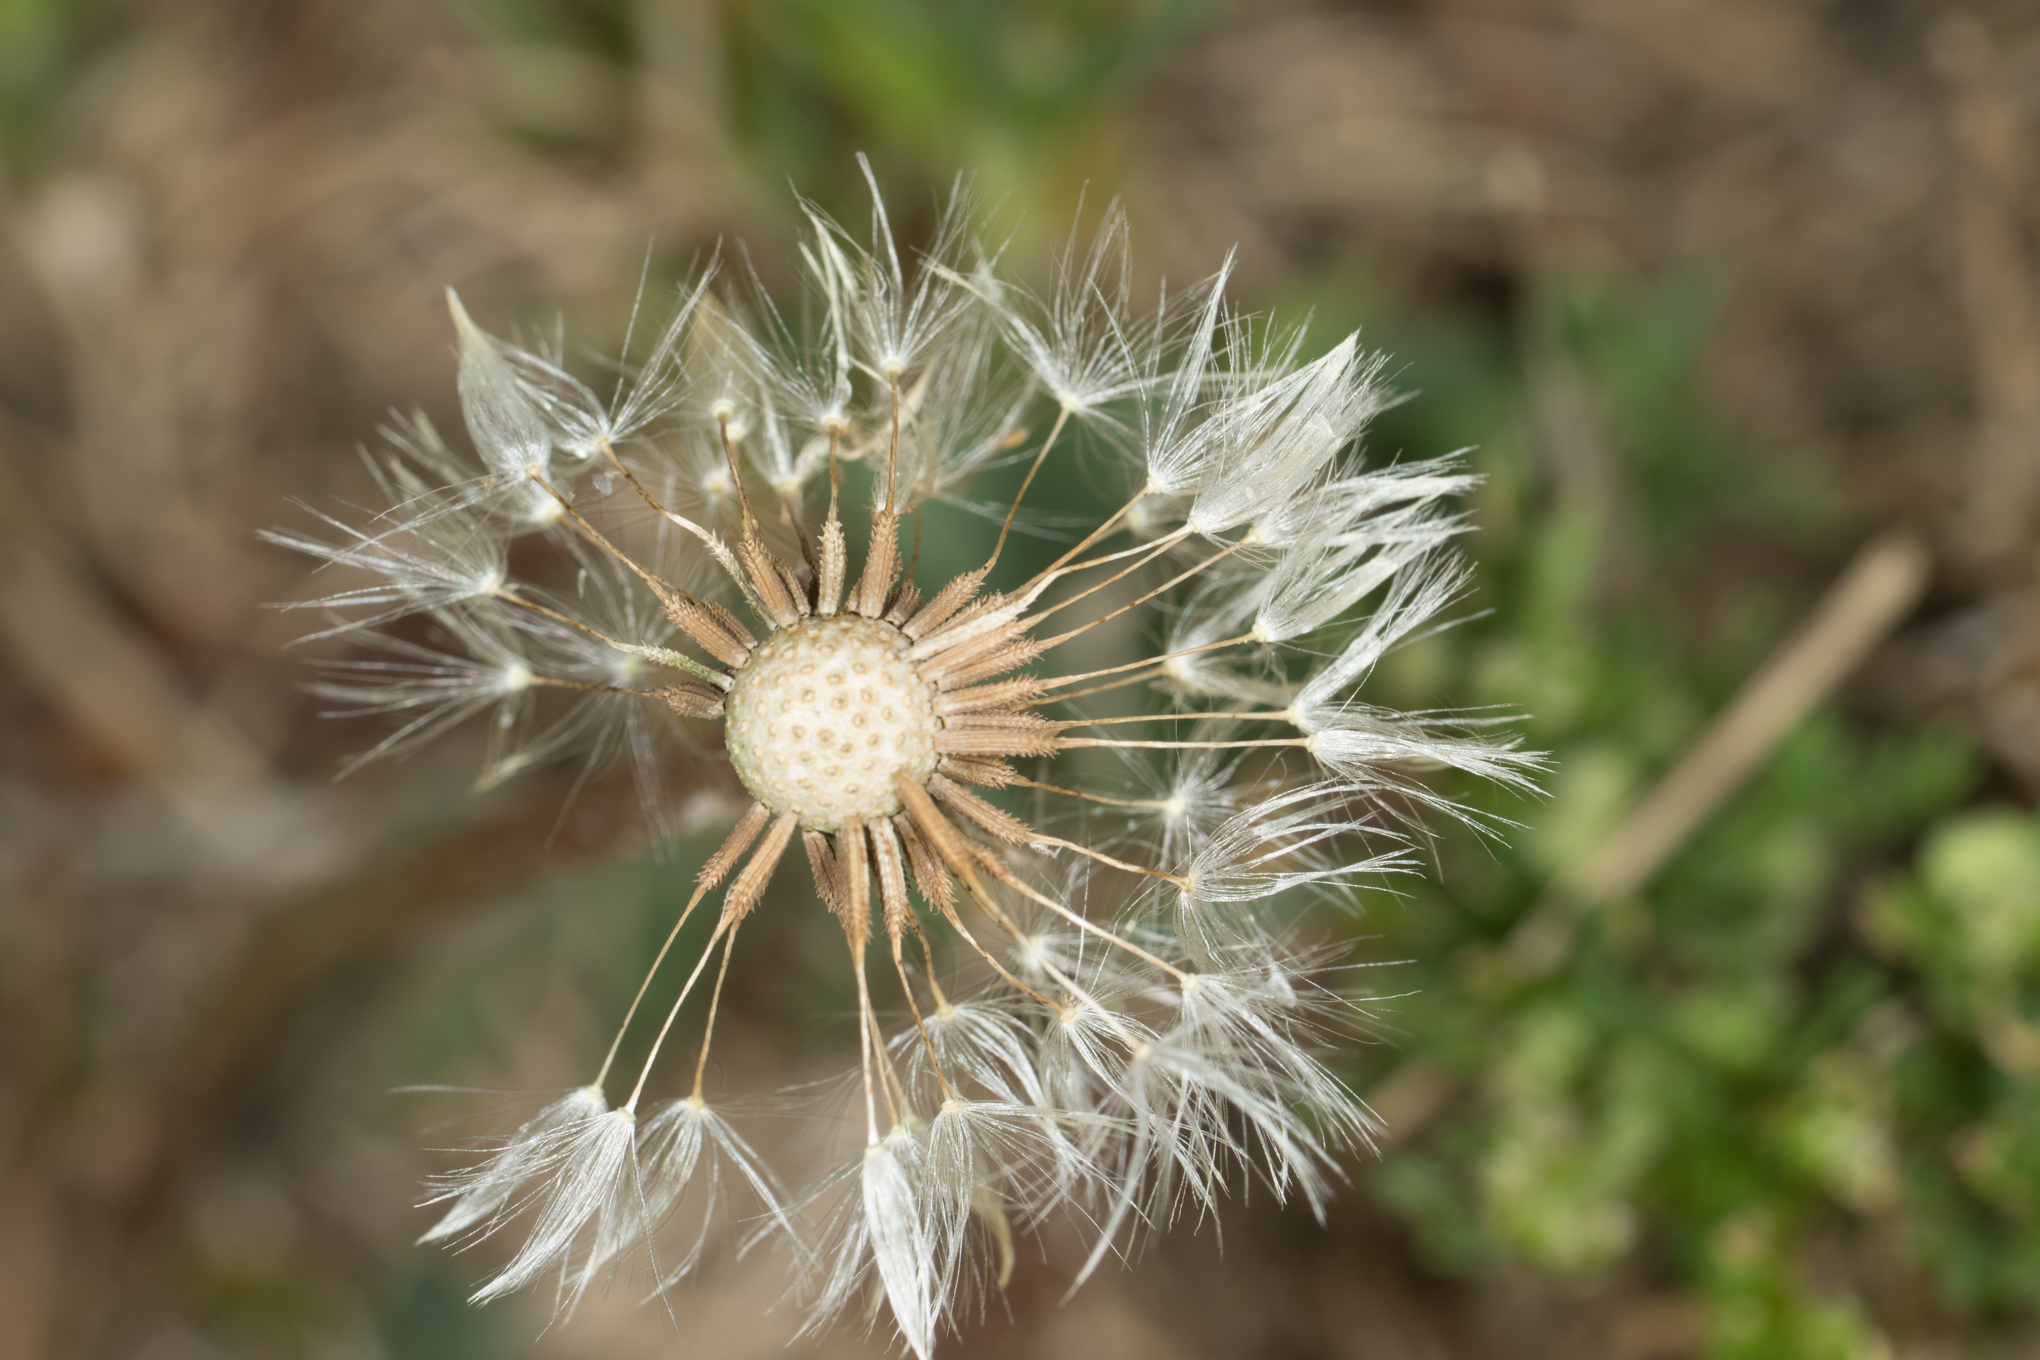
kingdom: Plantae
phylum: Tracheophyta
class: Magnoliopsida
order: Asterales
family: Asteraceae
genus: Taraxacum
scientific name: Taraxacum officinale
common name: Common dandelion
